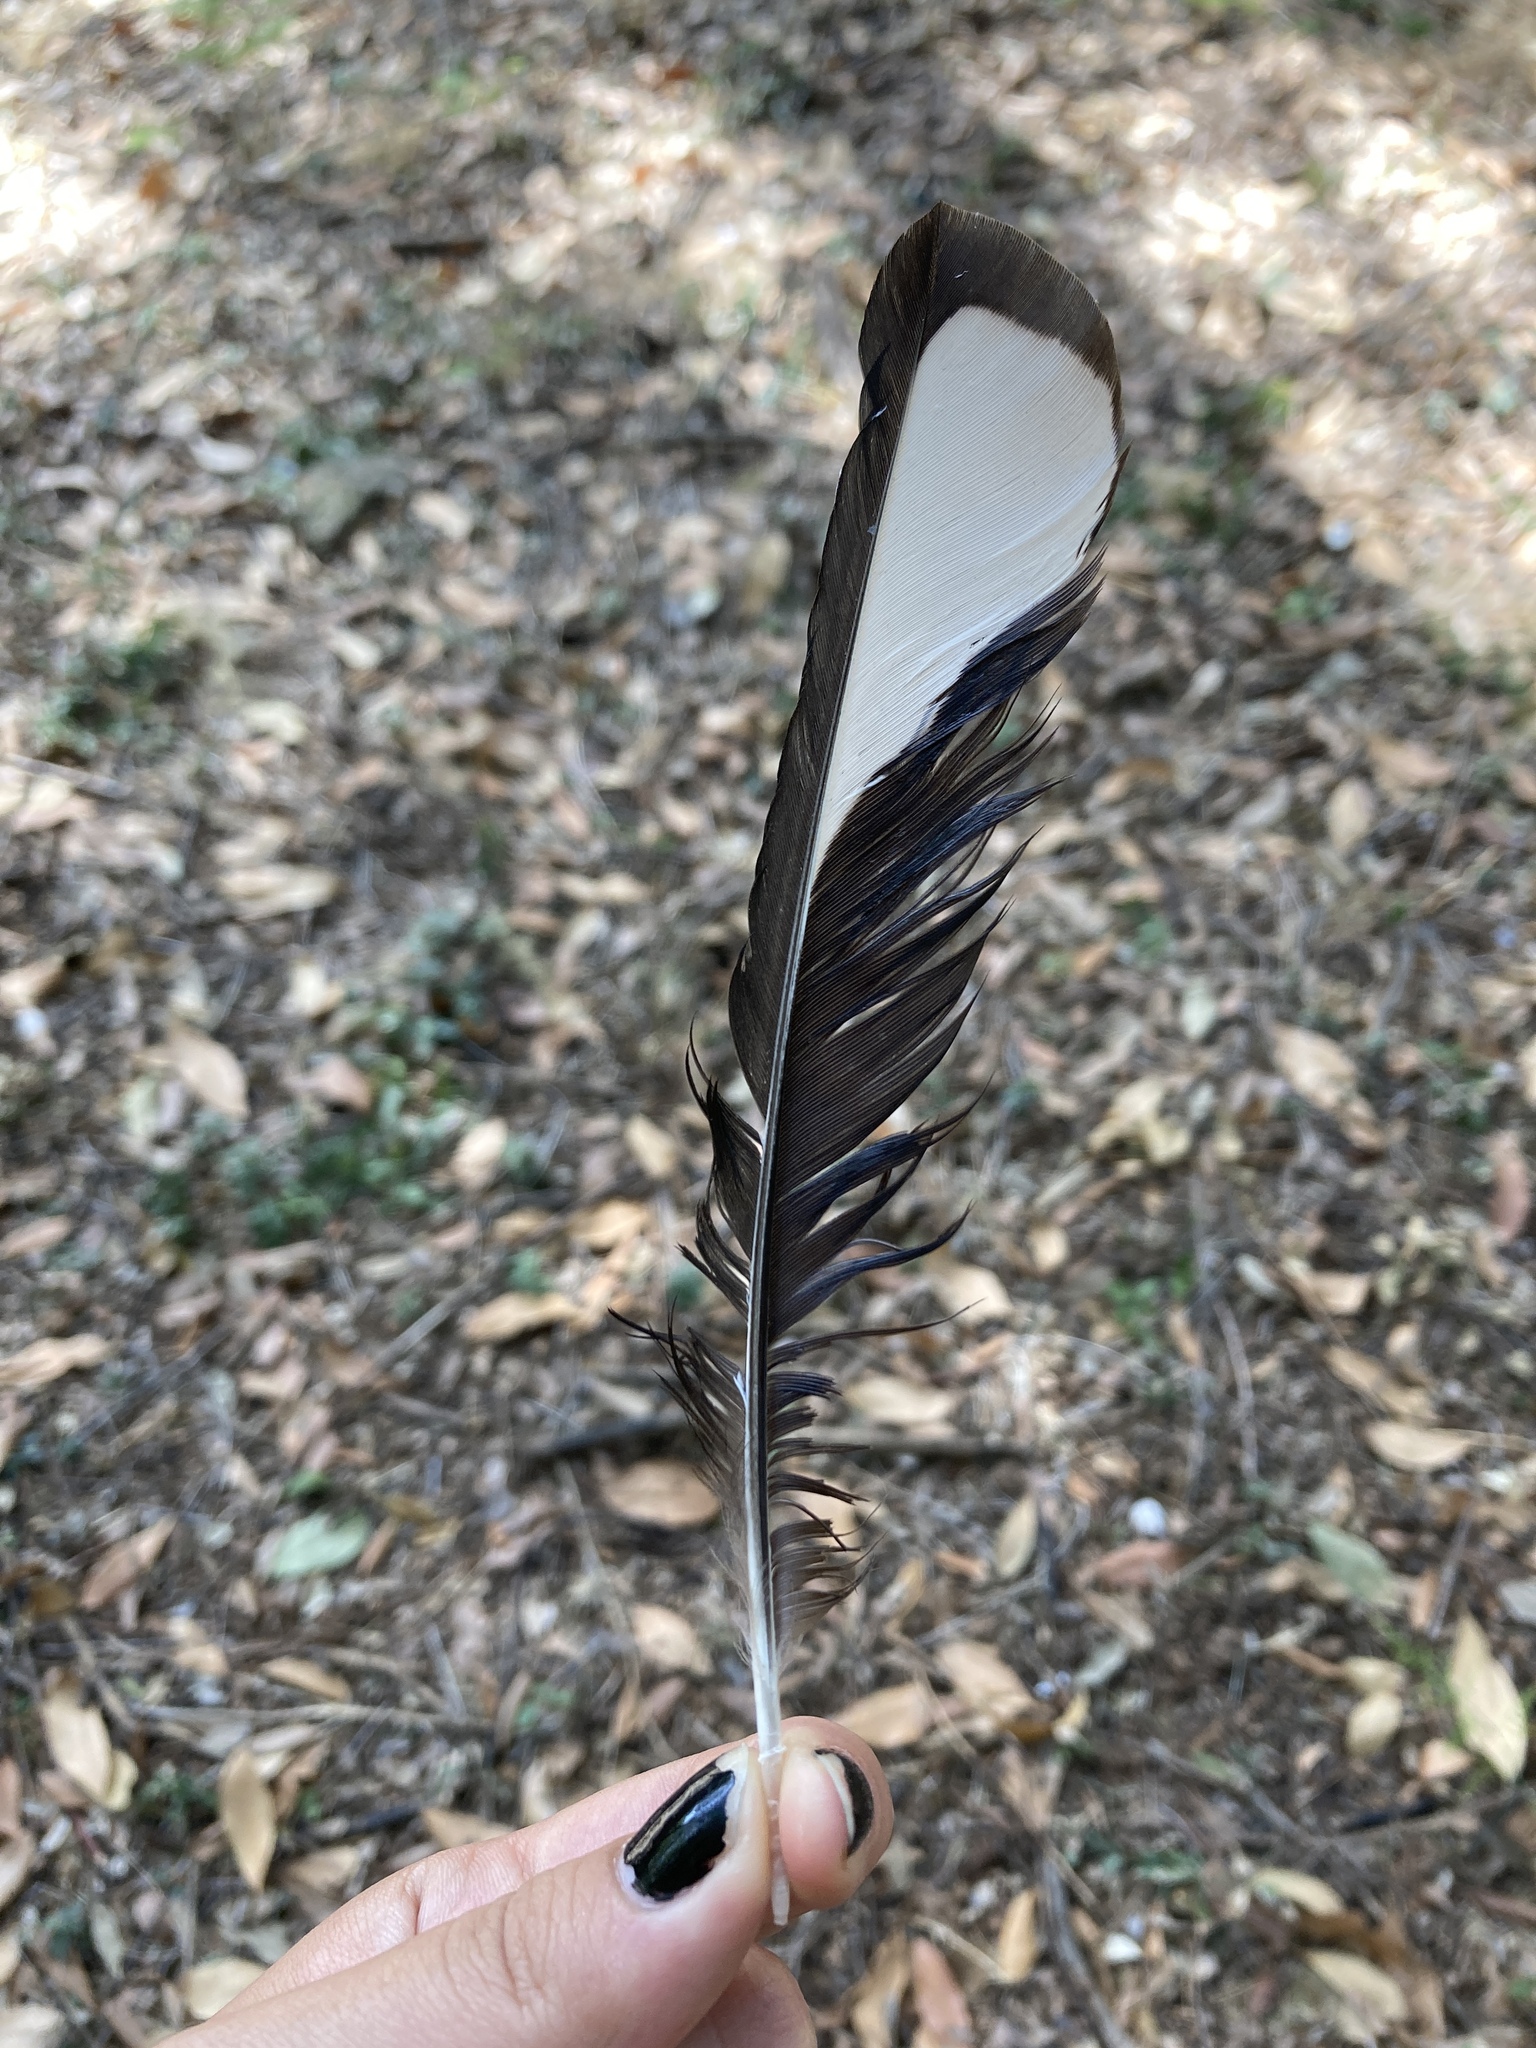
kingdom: Animalia
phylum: Chordata
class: Aves
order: Passeriformes
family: Corvidae
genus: Pica
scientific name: Pica pica
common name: Eurasian magpie
